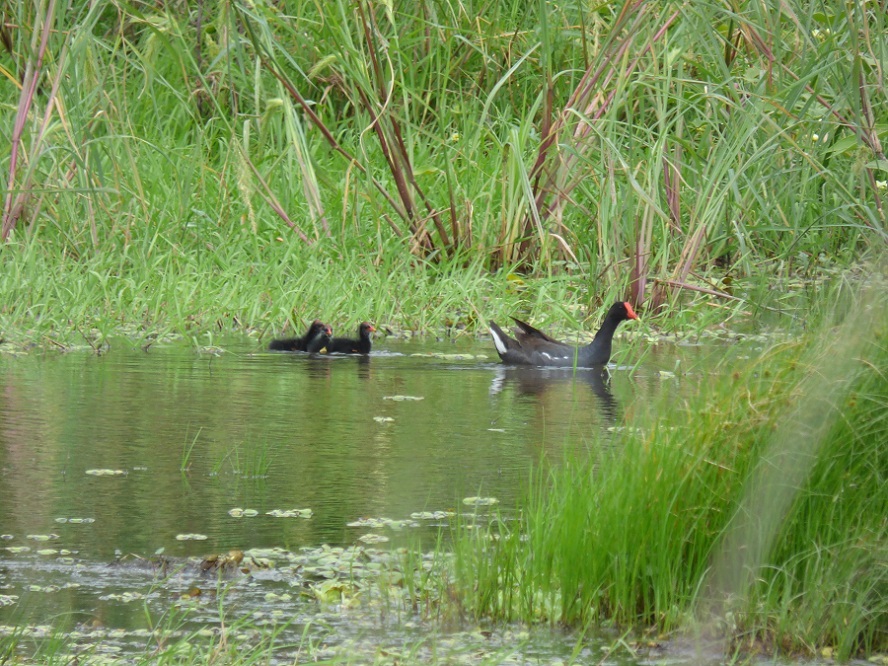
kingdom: Animalia
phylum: Chordata
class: Aves
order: Gruiformes
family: Rallidae
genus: Gallinula
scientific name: Gallinula chloropus
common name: Common moorhen
